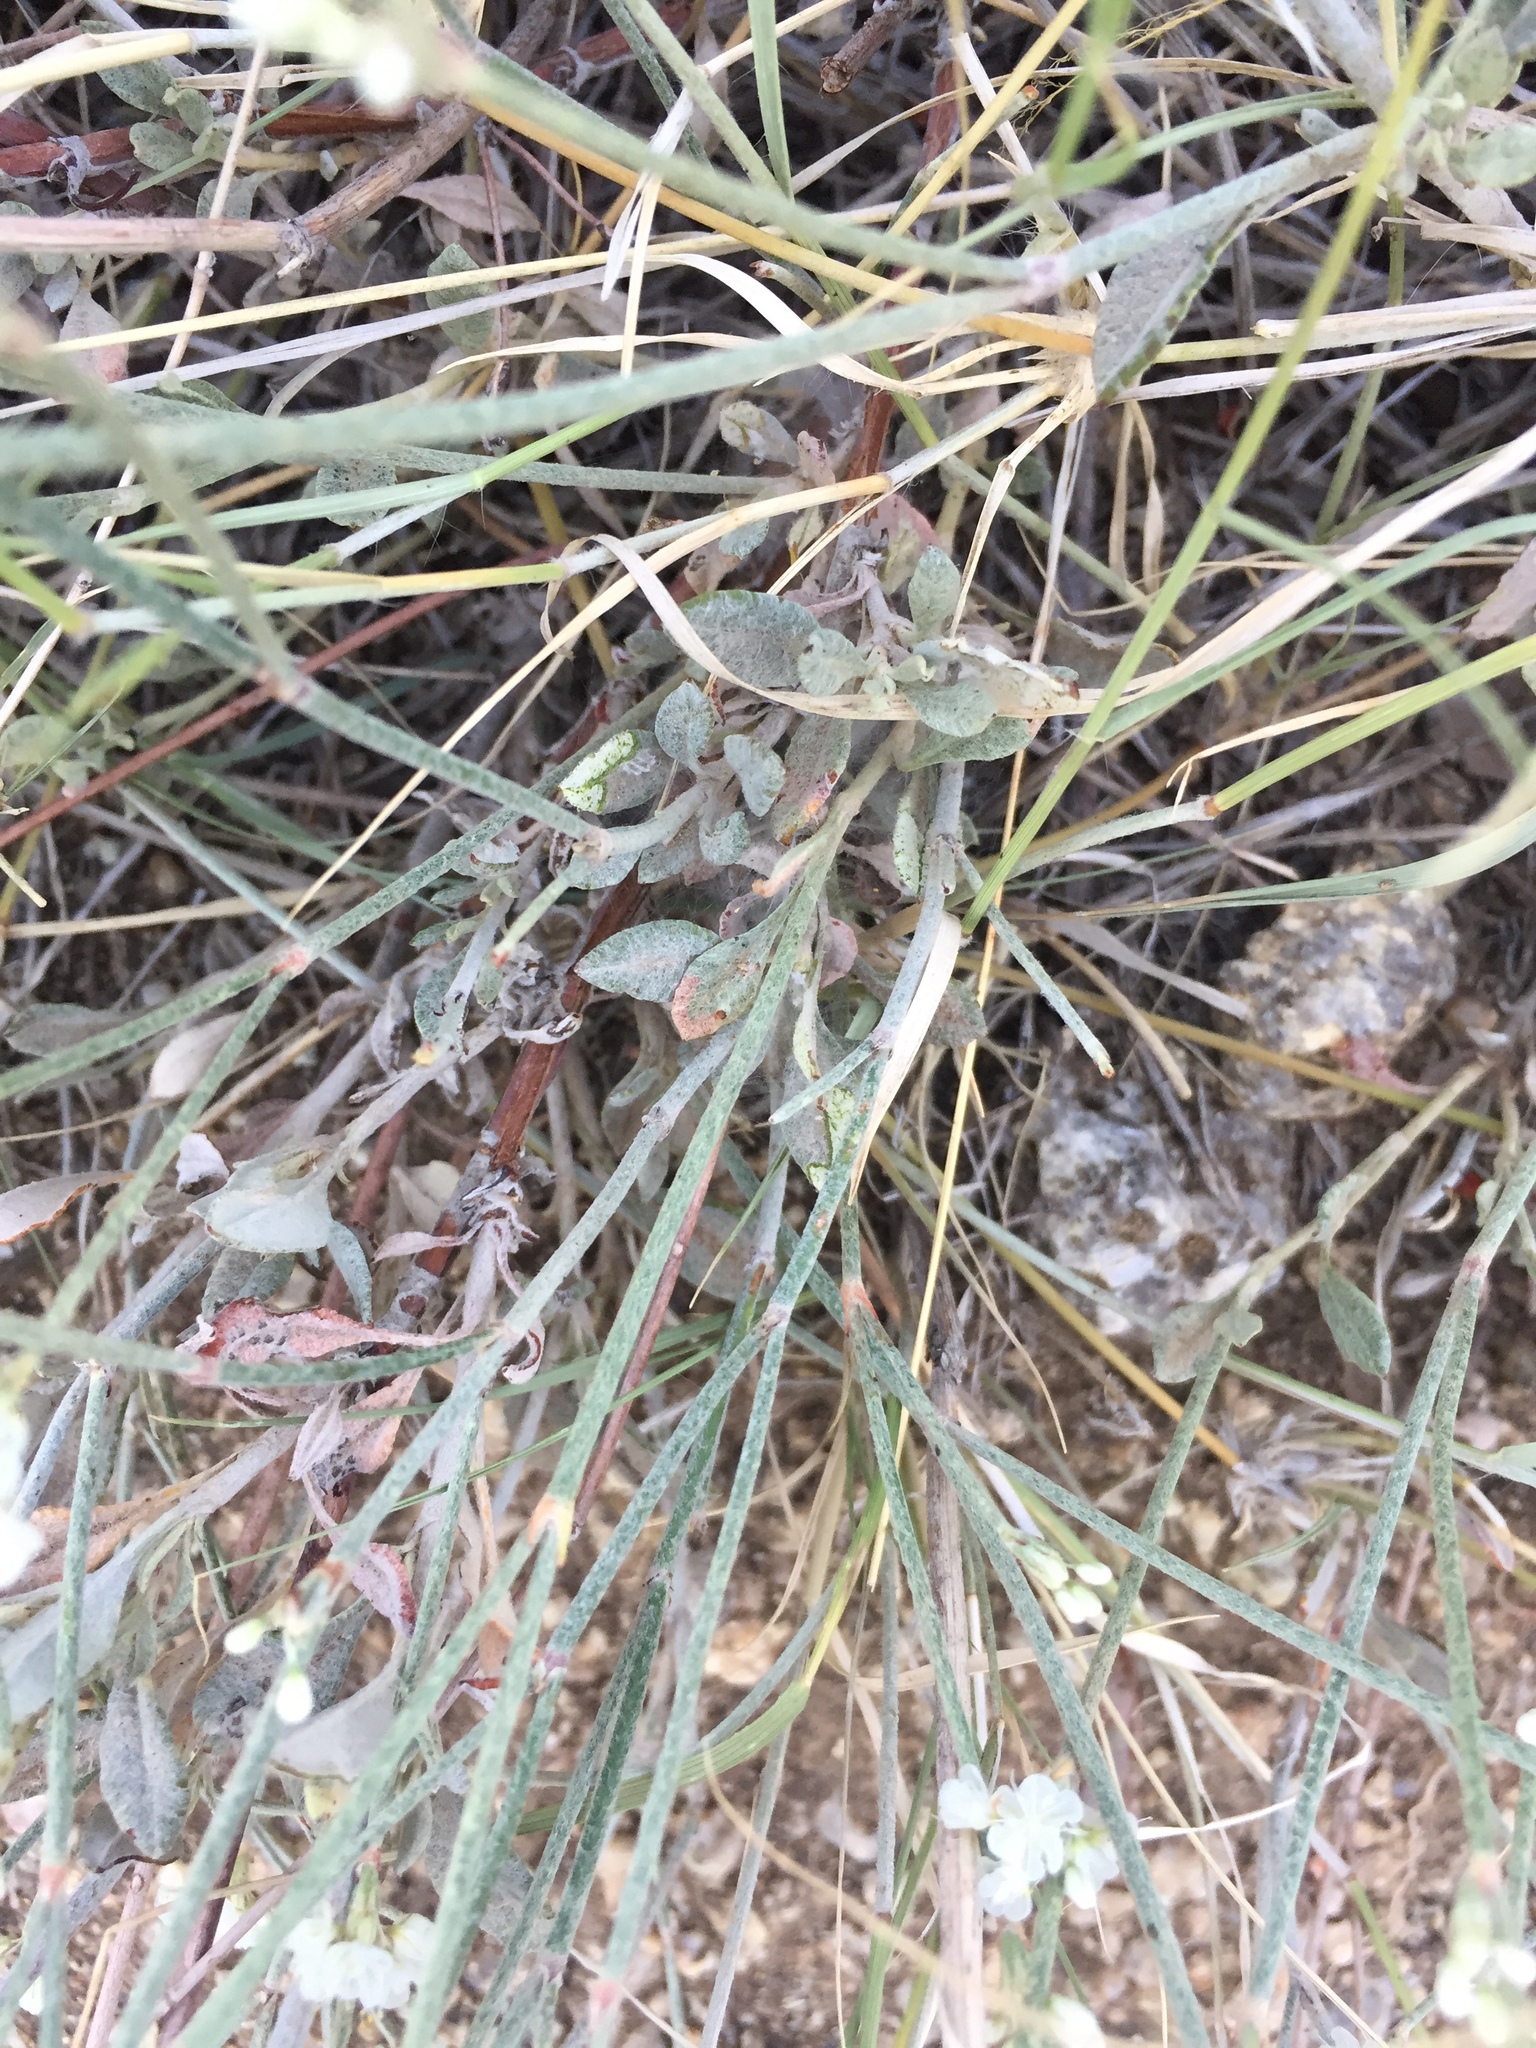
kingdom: Plantae
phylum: Tracheophyta
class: Magnoliopsida
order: Caryophyllales
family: Polygonaceae
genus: Eriogonum
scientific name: Eriogonum wrightii
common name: Bastard-sage
